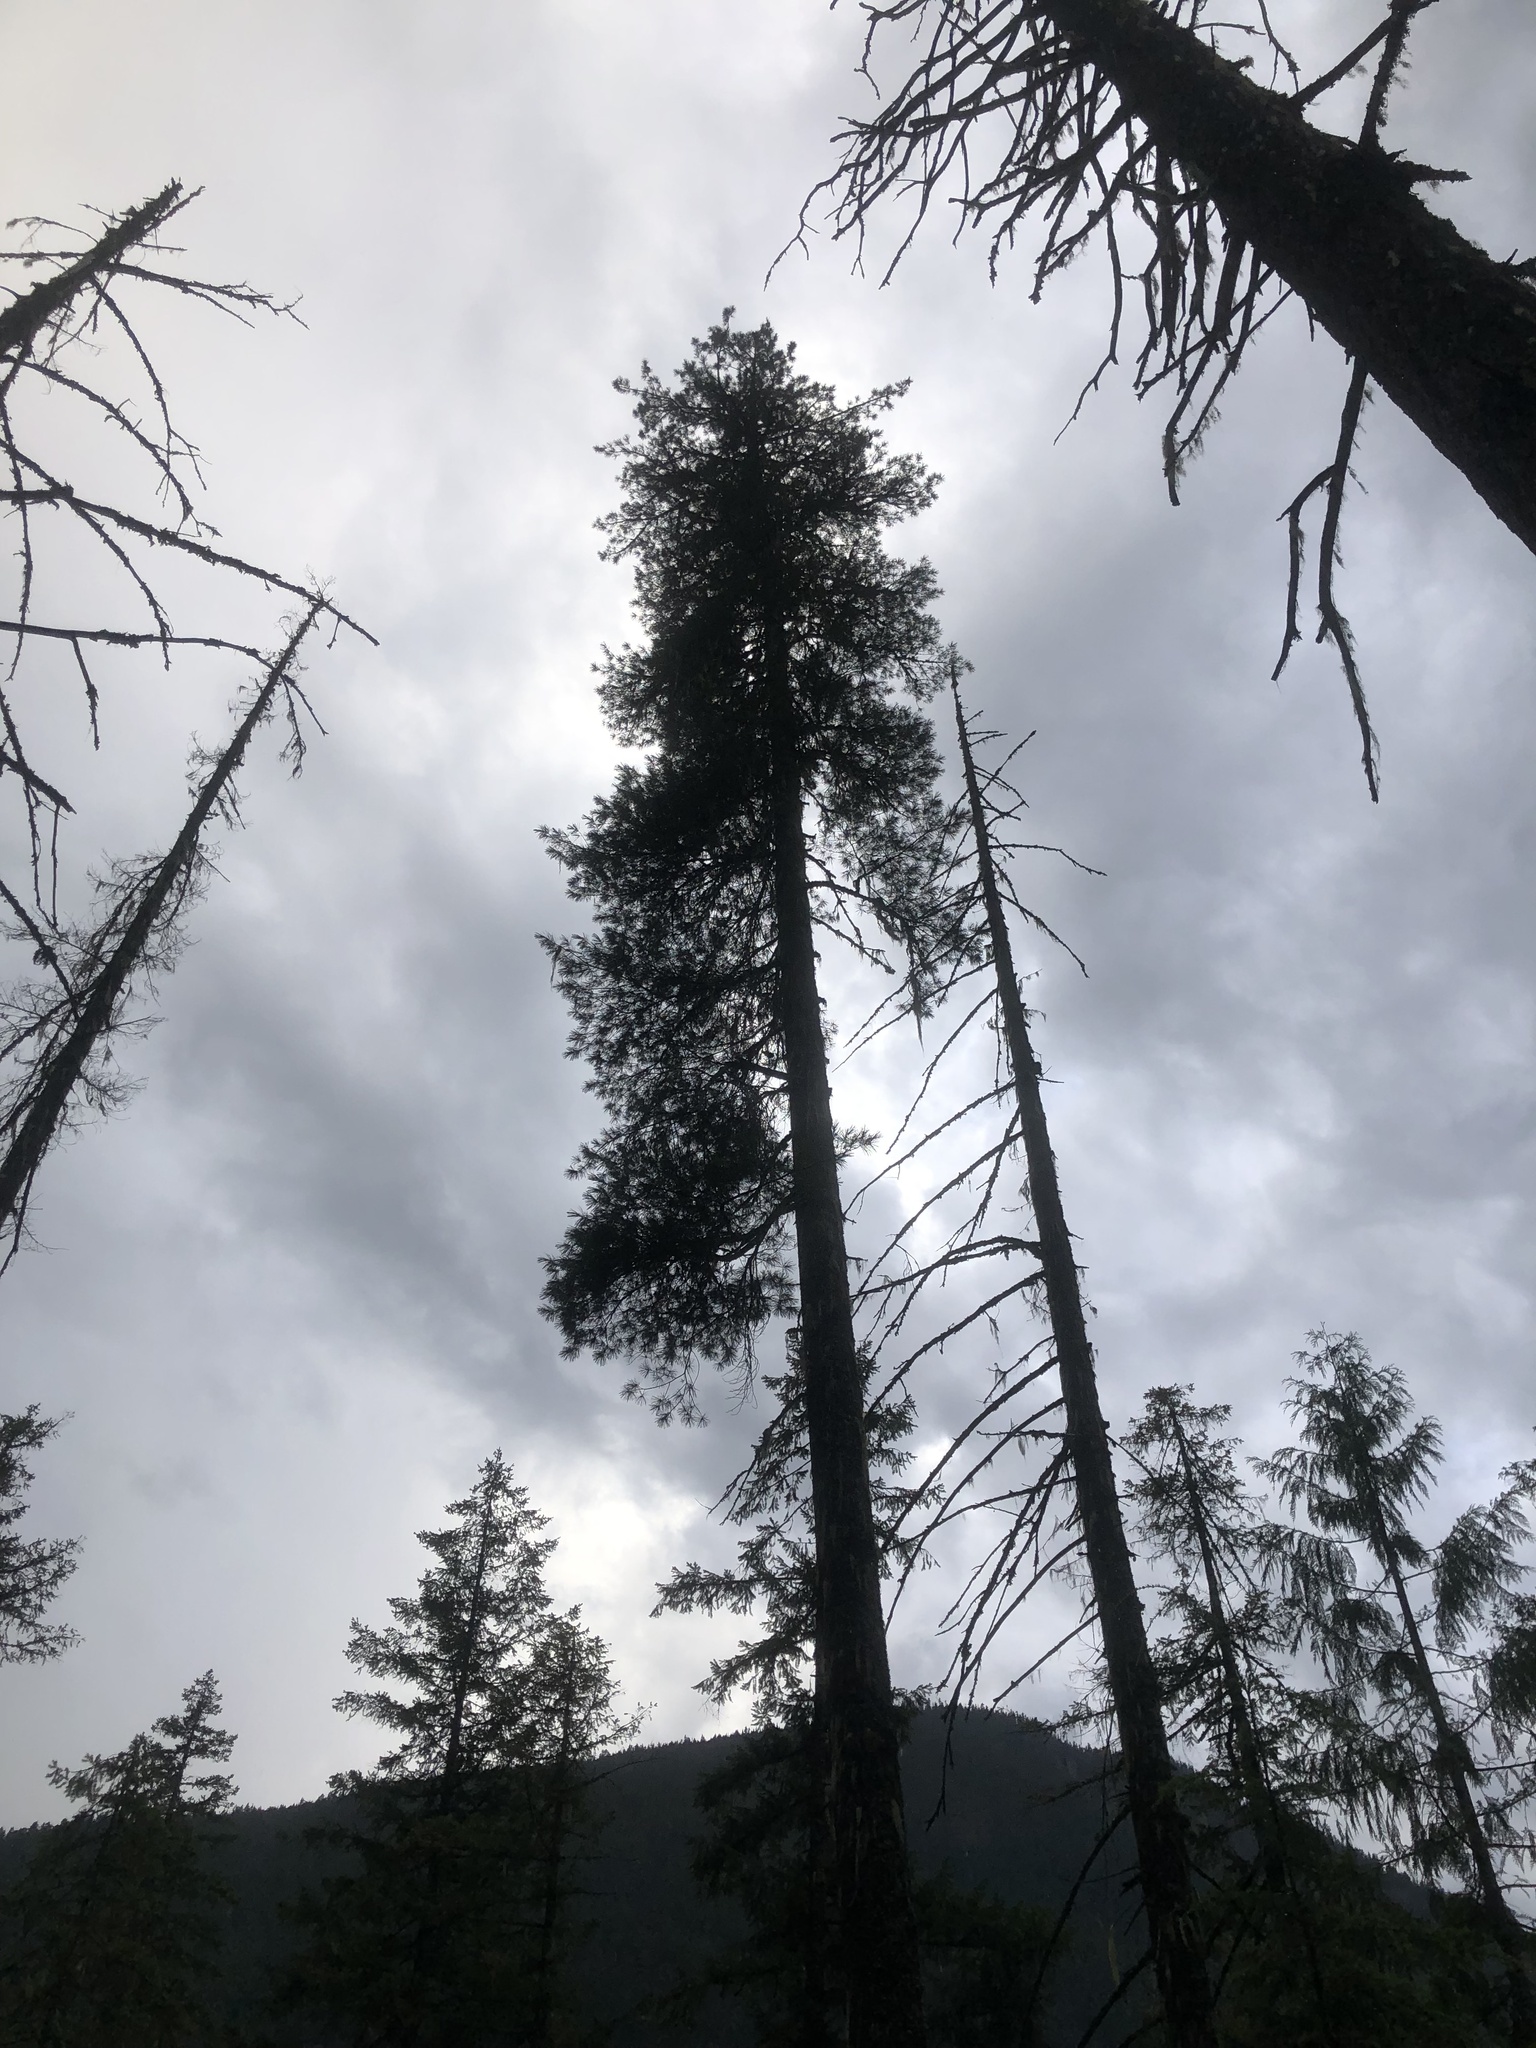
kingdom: Plantae
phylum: Tracheophyta
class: Pinopsida
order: Pinales
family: Pinaceae
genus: Pinus
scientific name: Pinus monticola
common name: Western white pine
